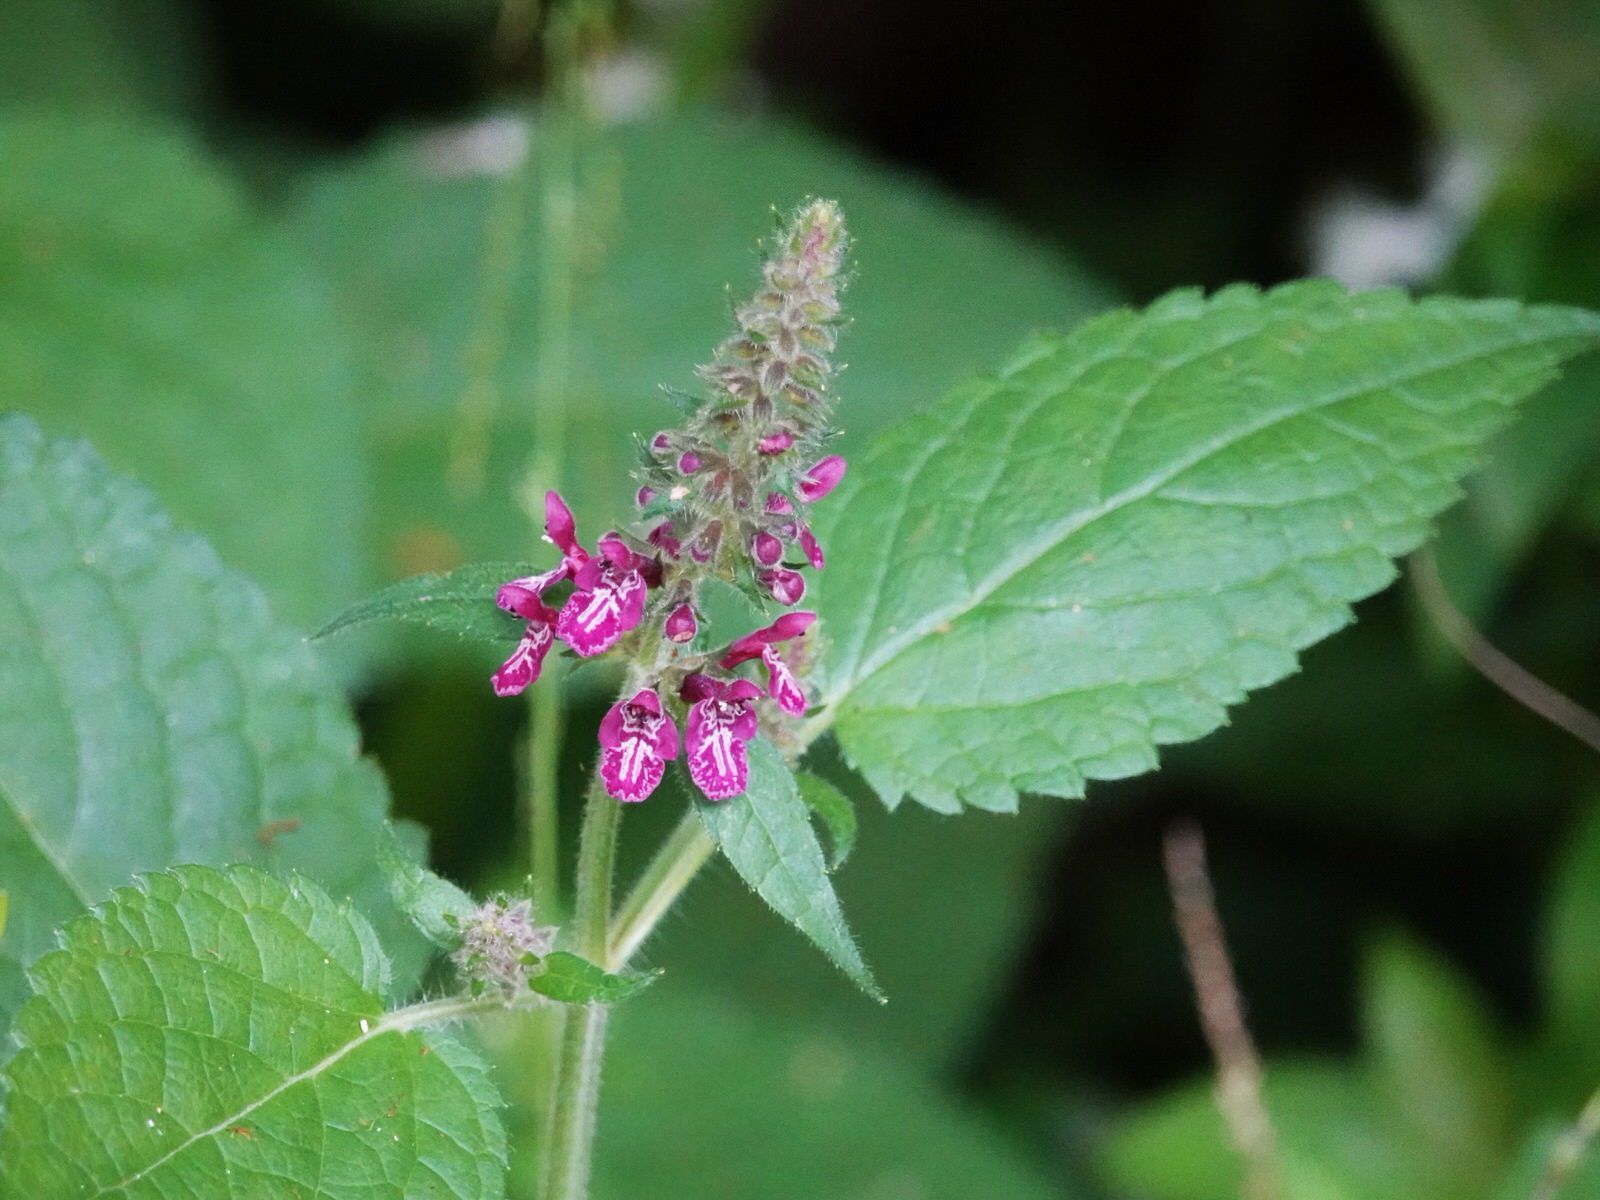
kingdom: Plantae
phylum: Tracheophyta
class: Magnoliopsida
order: Lamiales
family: Lamiaceae
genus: Stachys
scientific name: Stachys sylvatica
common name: Hedge woundwort
